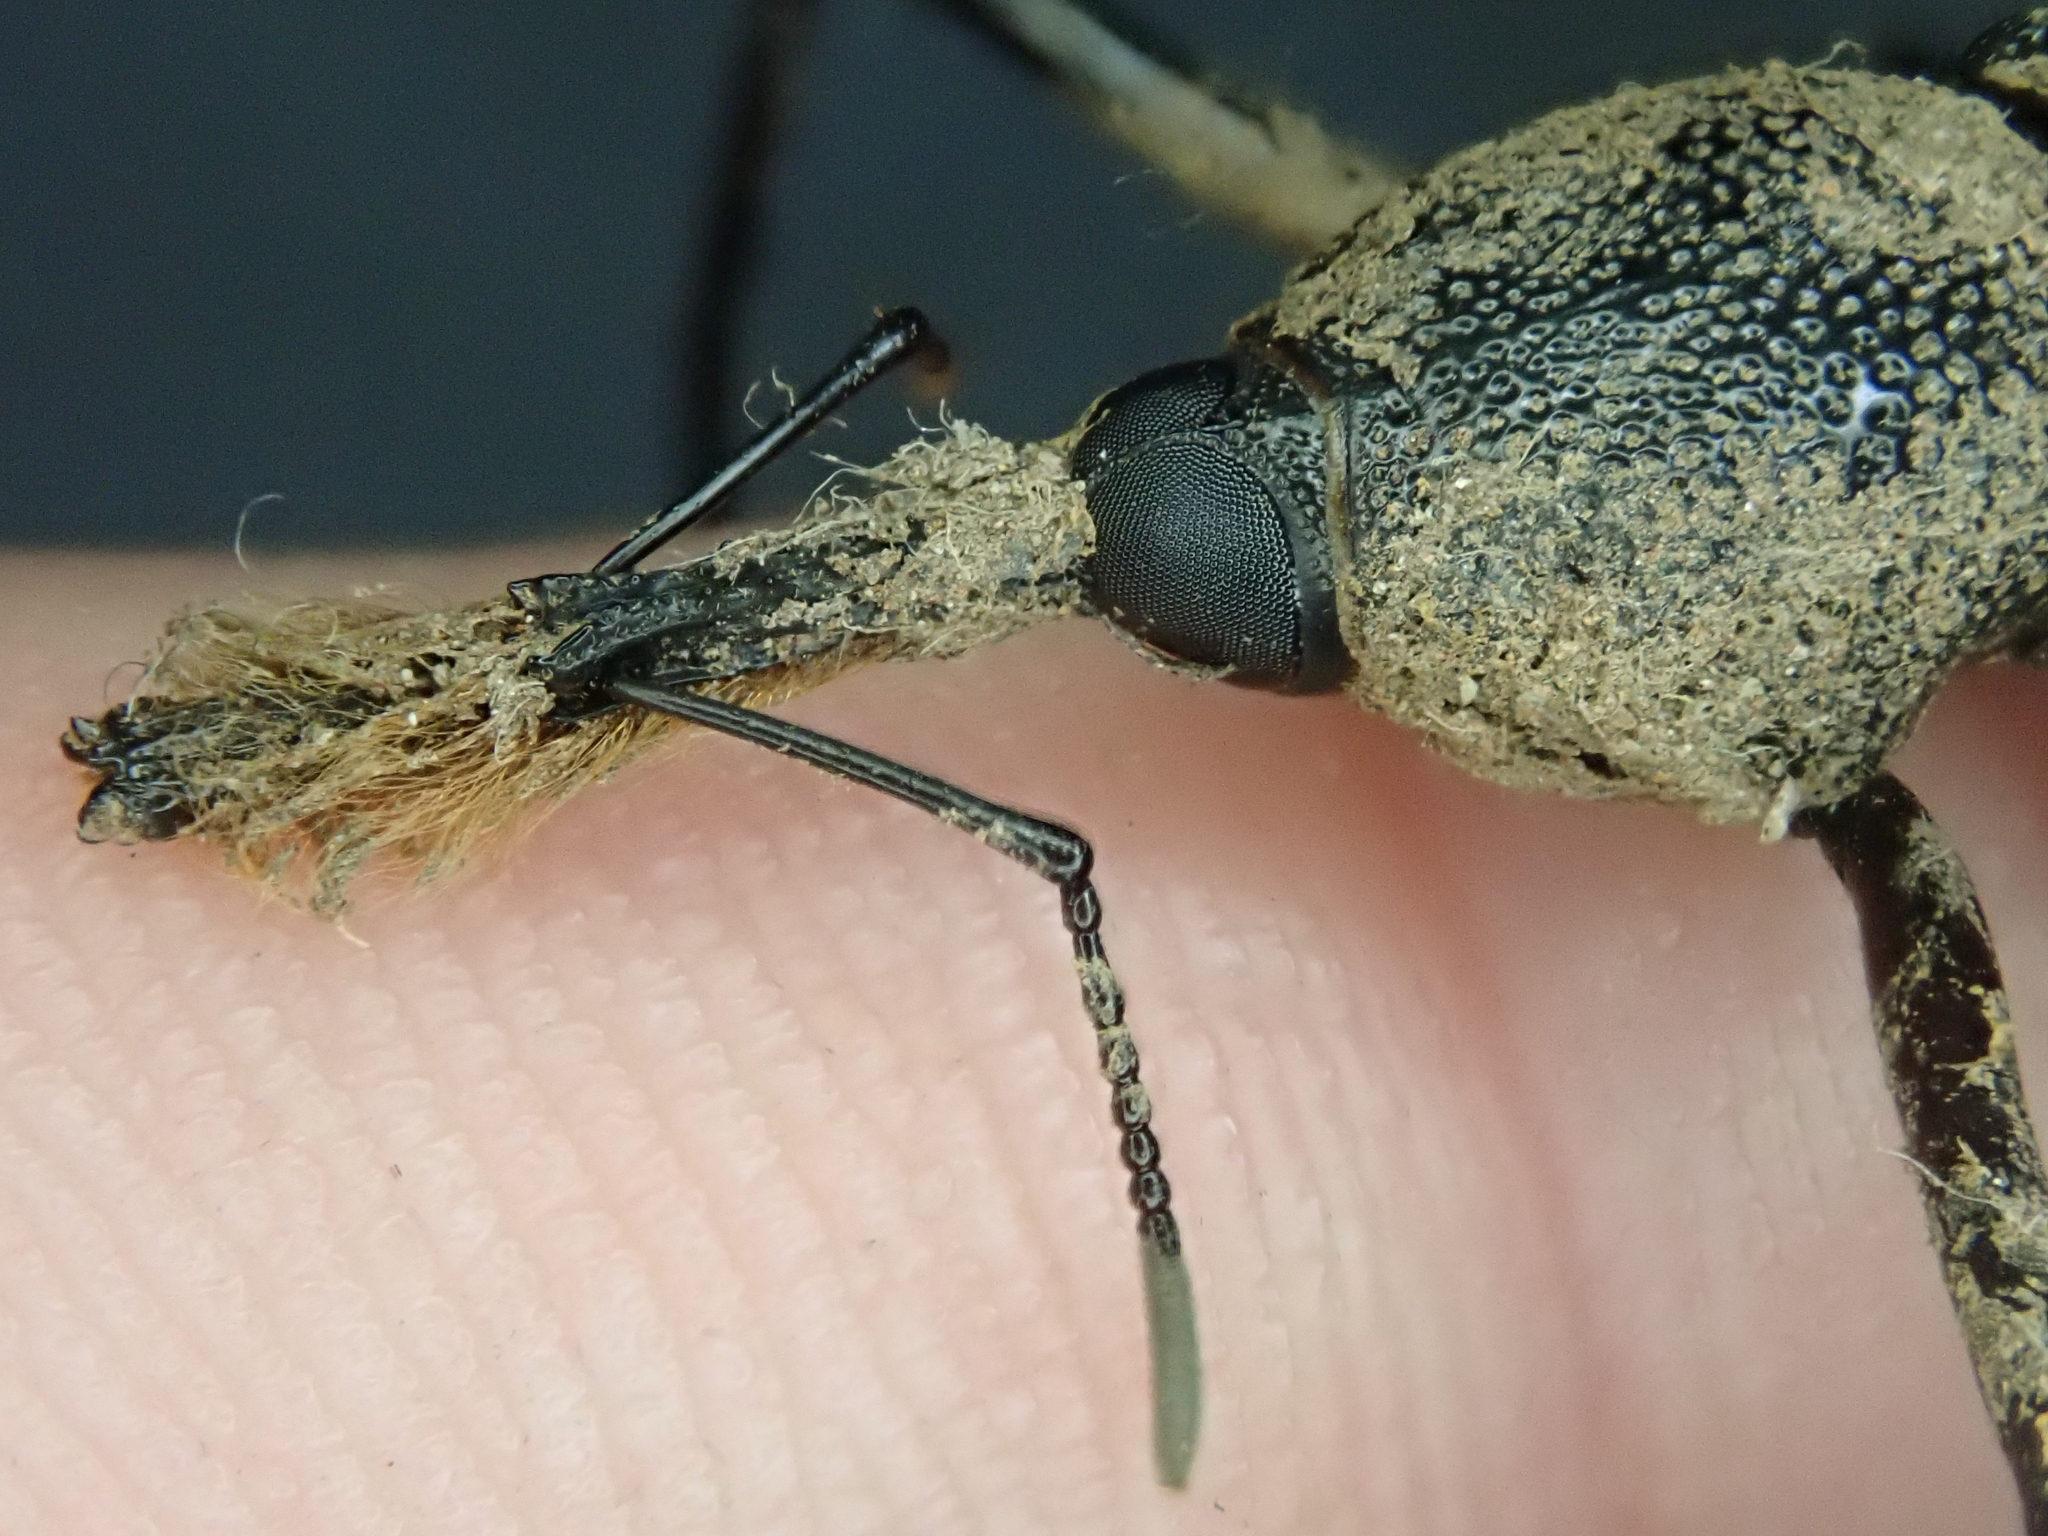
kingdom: Animalia
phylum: Arthropoda
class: Insecta
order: Coleoptera
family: Dryophthoridae
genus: Rhinostomus
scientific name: Rhinostomus barbirostris
